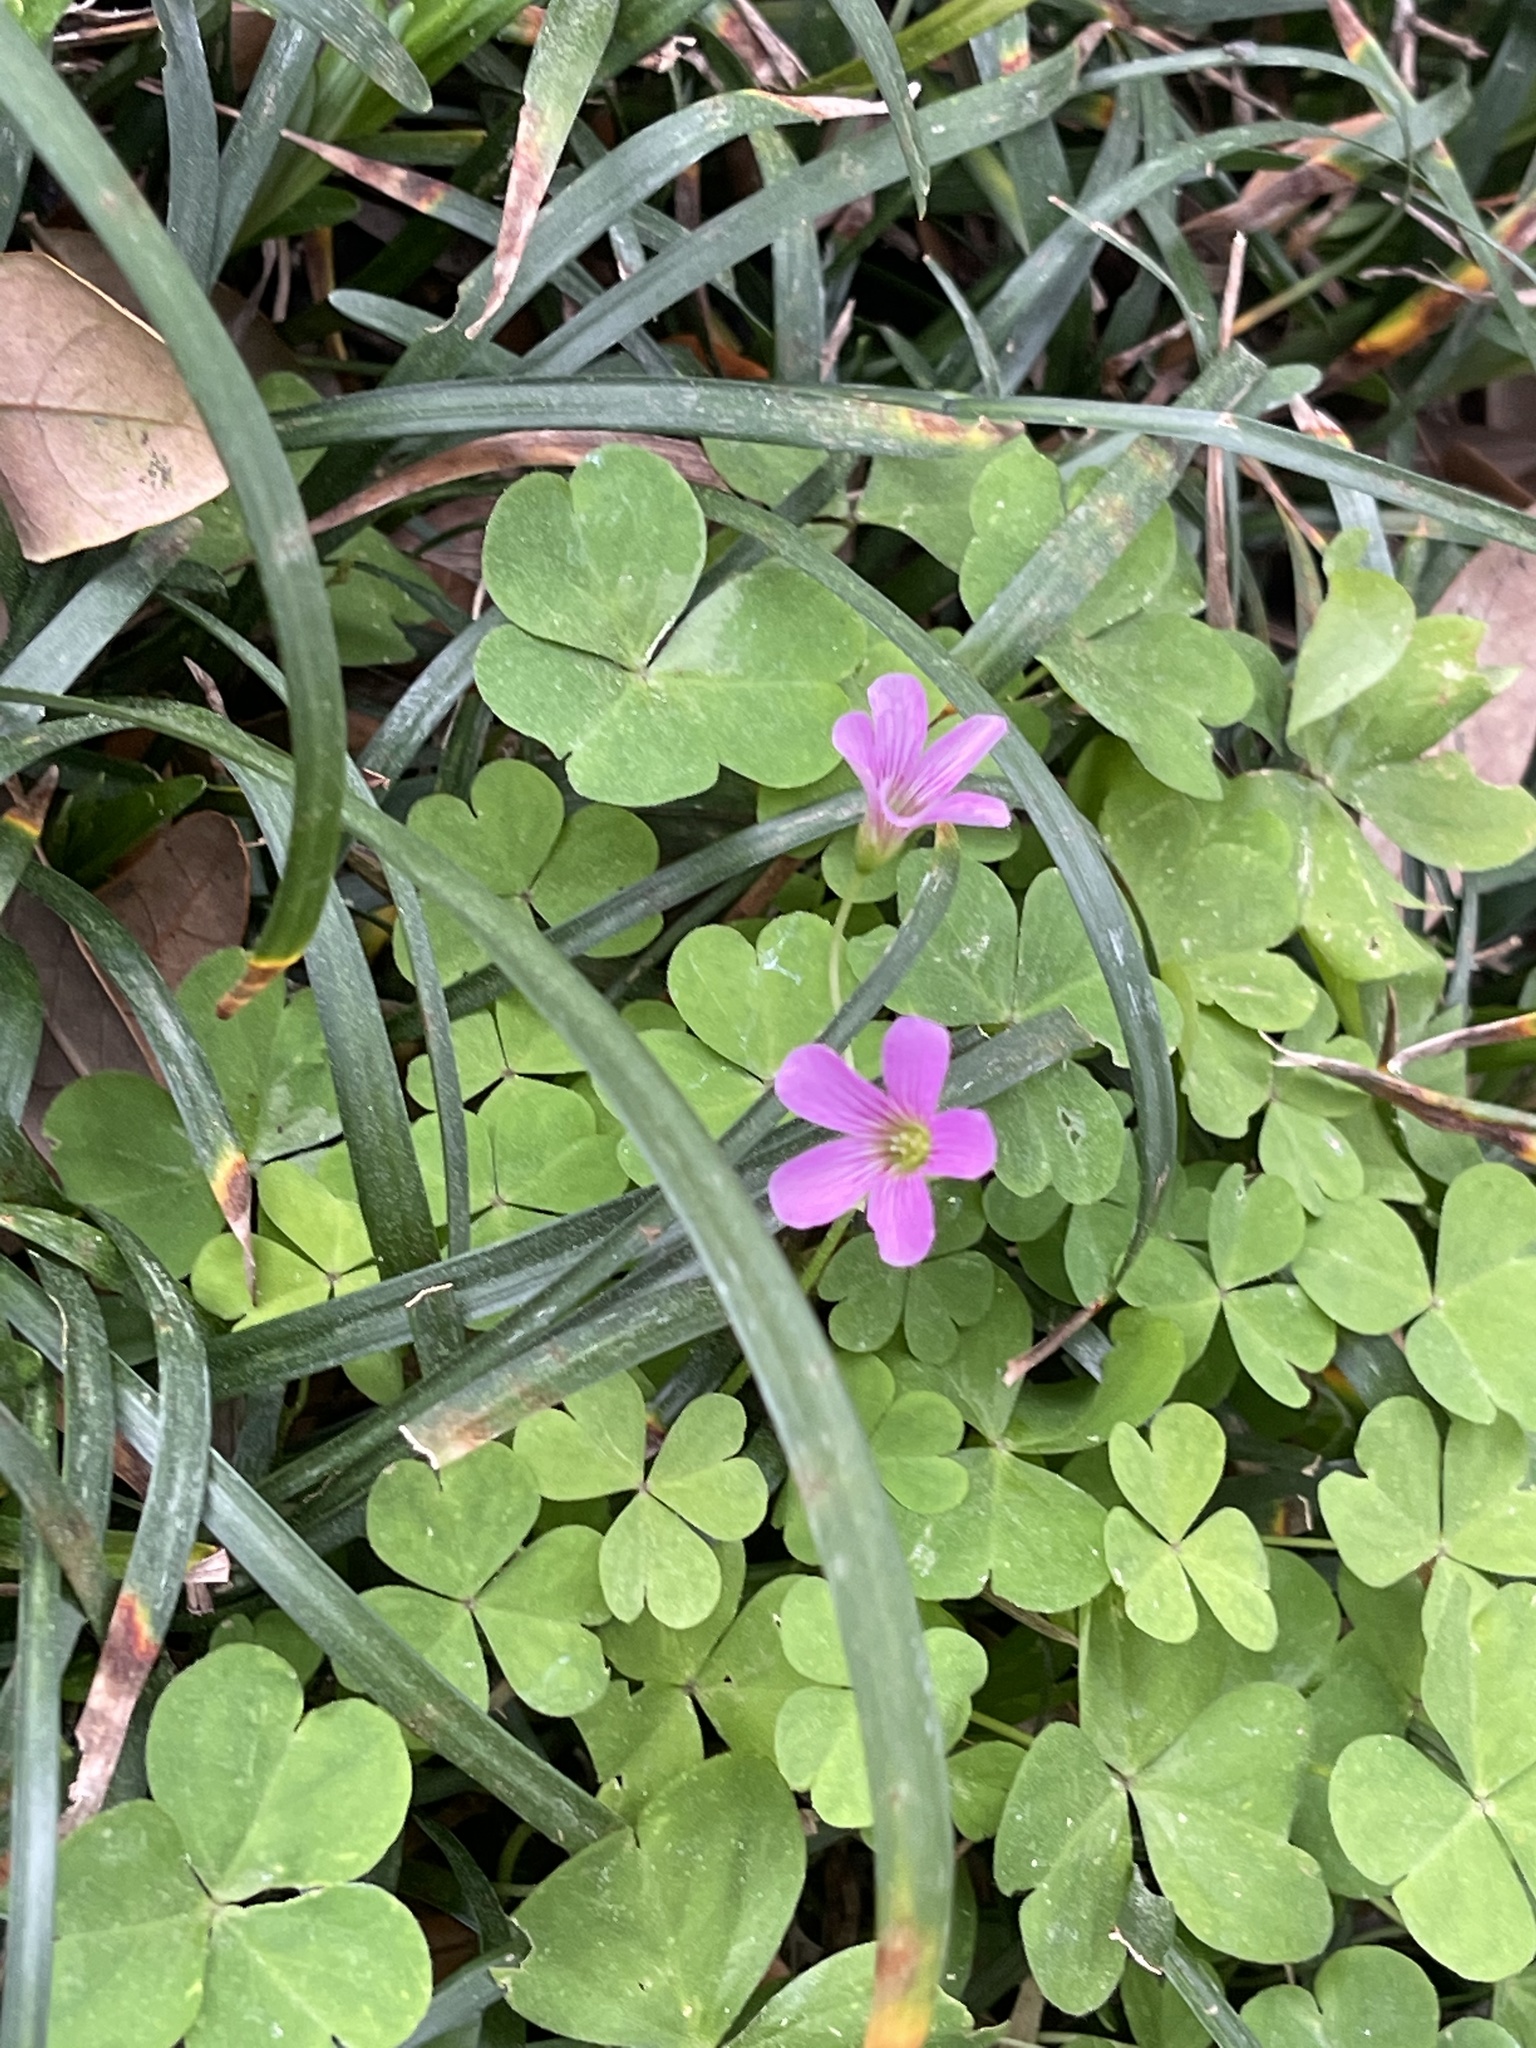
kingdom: Plantae
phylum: Tracheophyta
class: Magnoliopsida
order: Oxalidales
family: Oxalidaceae
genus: Oxalis
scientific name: Oxalis debilis
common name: Large-flowered pink-sorrel
